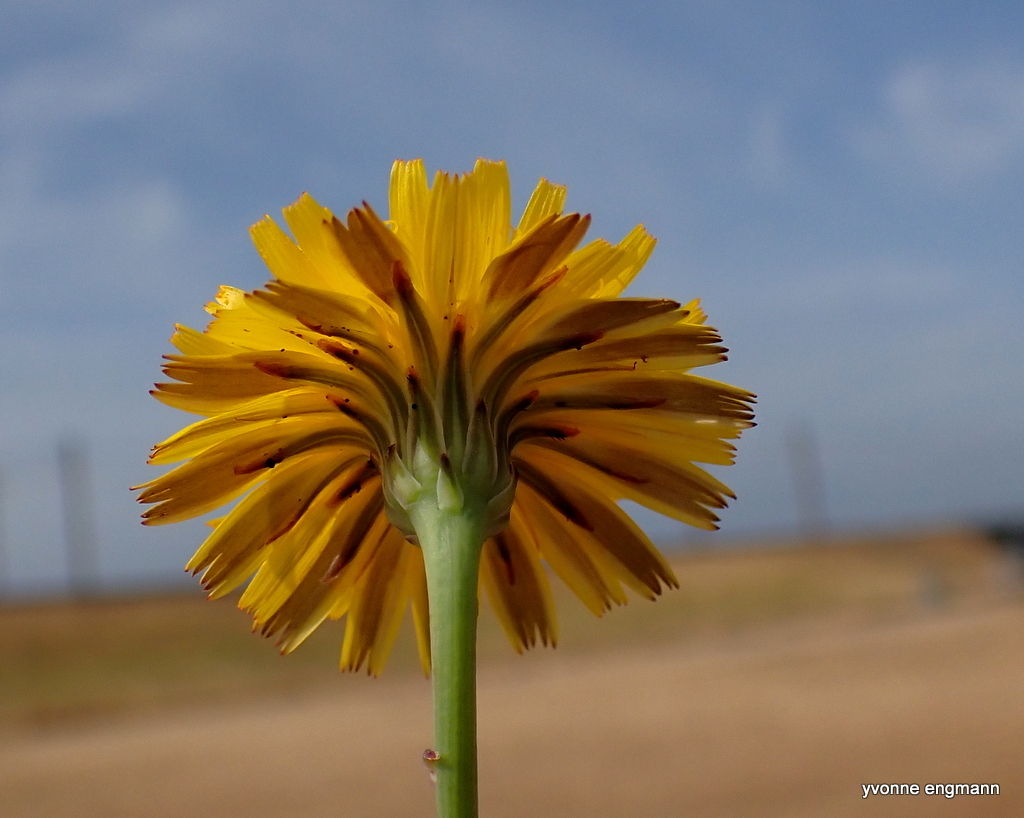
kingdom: Plantae
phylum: Tracheophyta
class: Magnoliopsida
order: Asterales
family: Asteraceae
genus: Hypochaeris
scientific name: Hypochaeris radicata
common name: Flatweed
